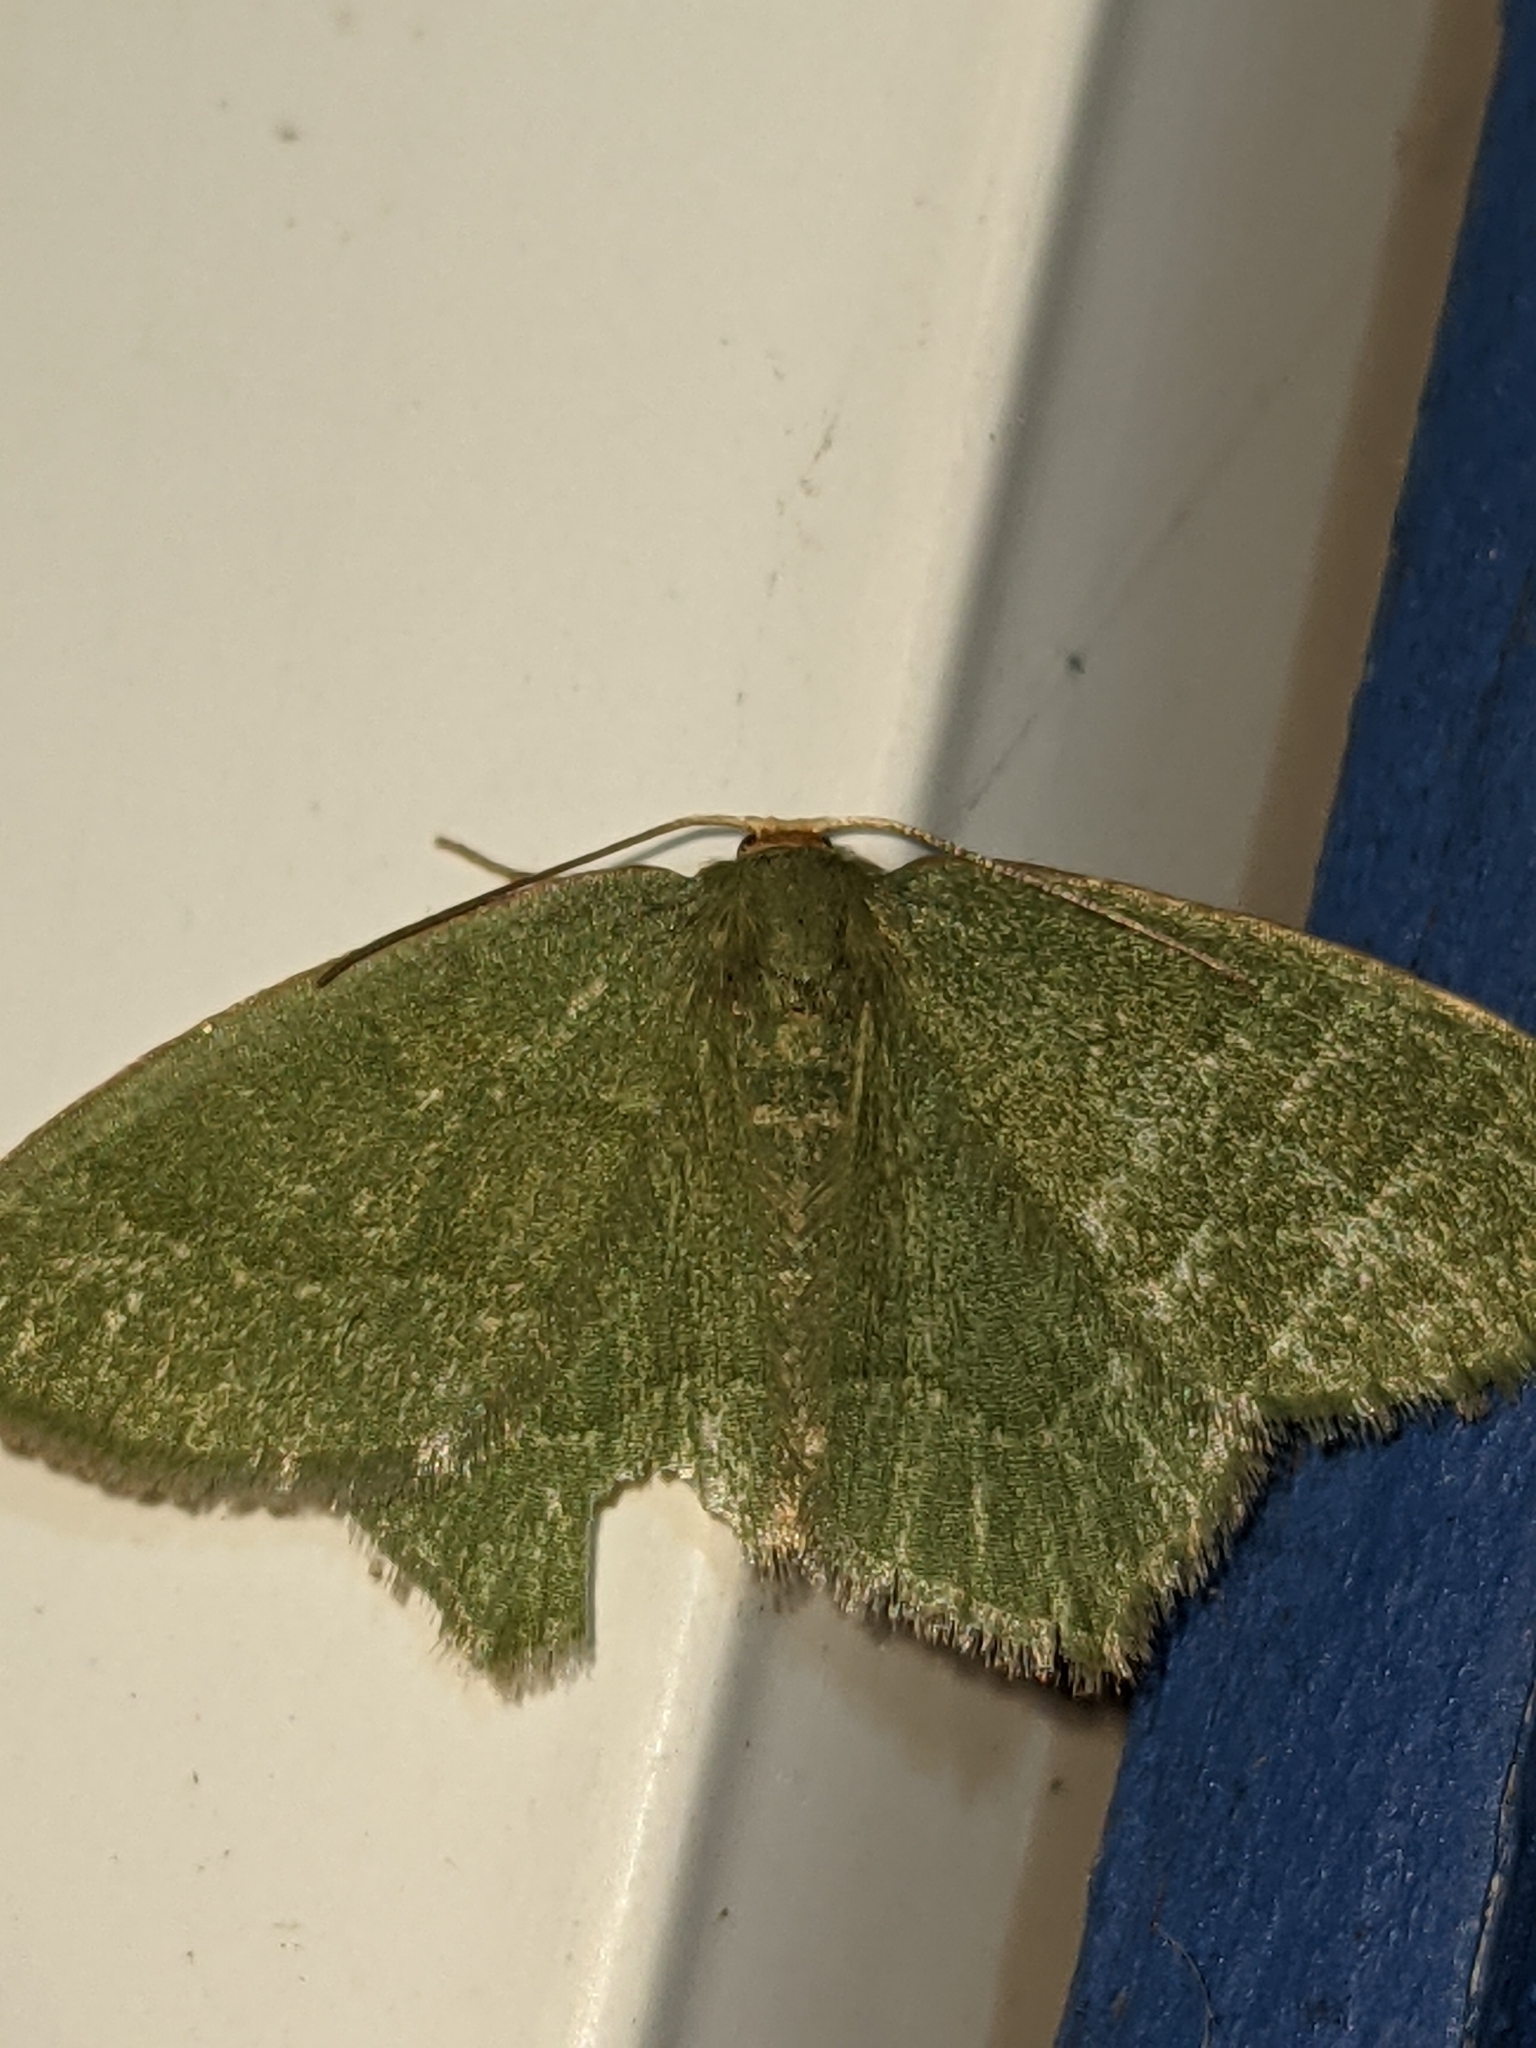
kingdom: Animalia
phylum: Arthropoda
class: Insecta
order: Lepidoptera
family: Geometridae
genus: Thalera
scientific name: Thalera pistasciaria
